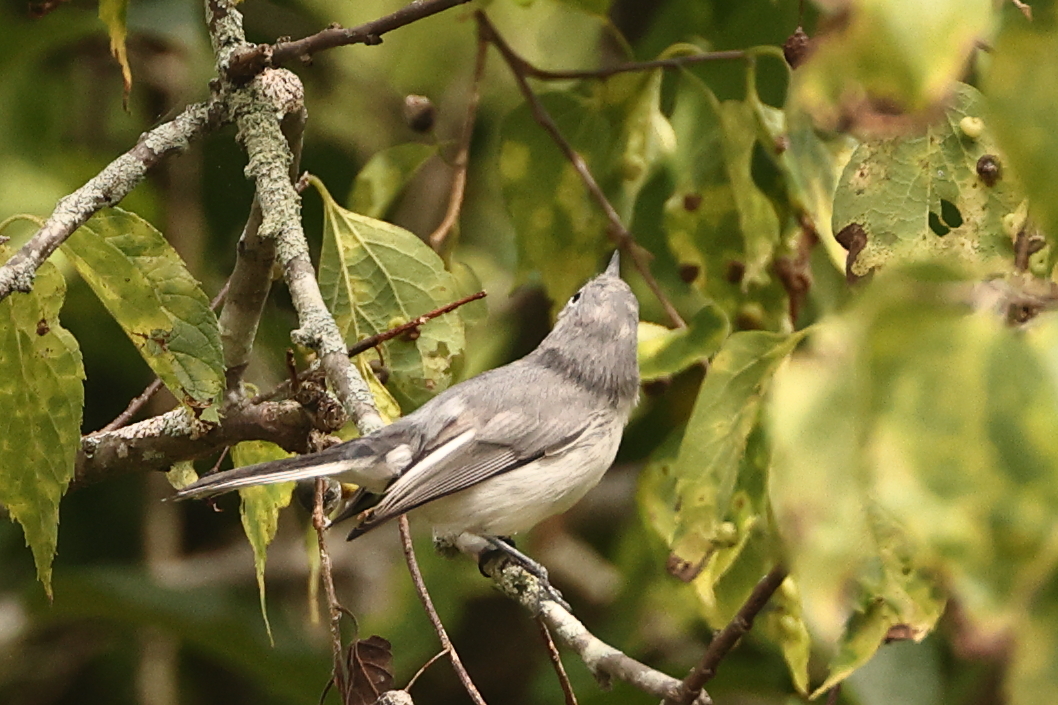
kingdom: Animalia
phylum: Chordata
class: Aves
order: Passeriformes
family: Polioptilidae
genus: Polioptila
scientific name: Polioptila caerulea
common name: Blue-gray gnatcatcher
